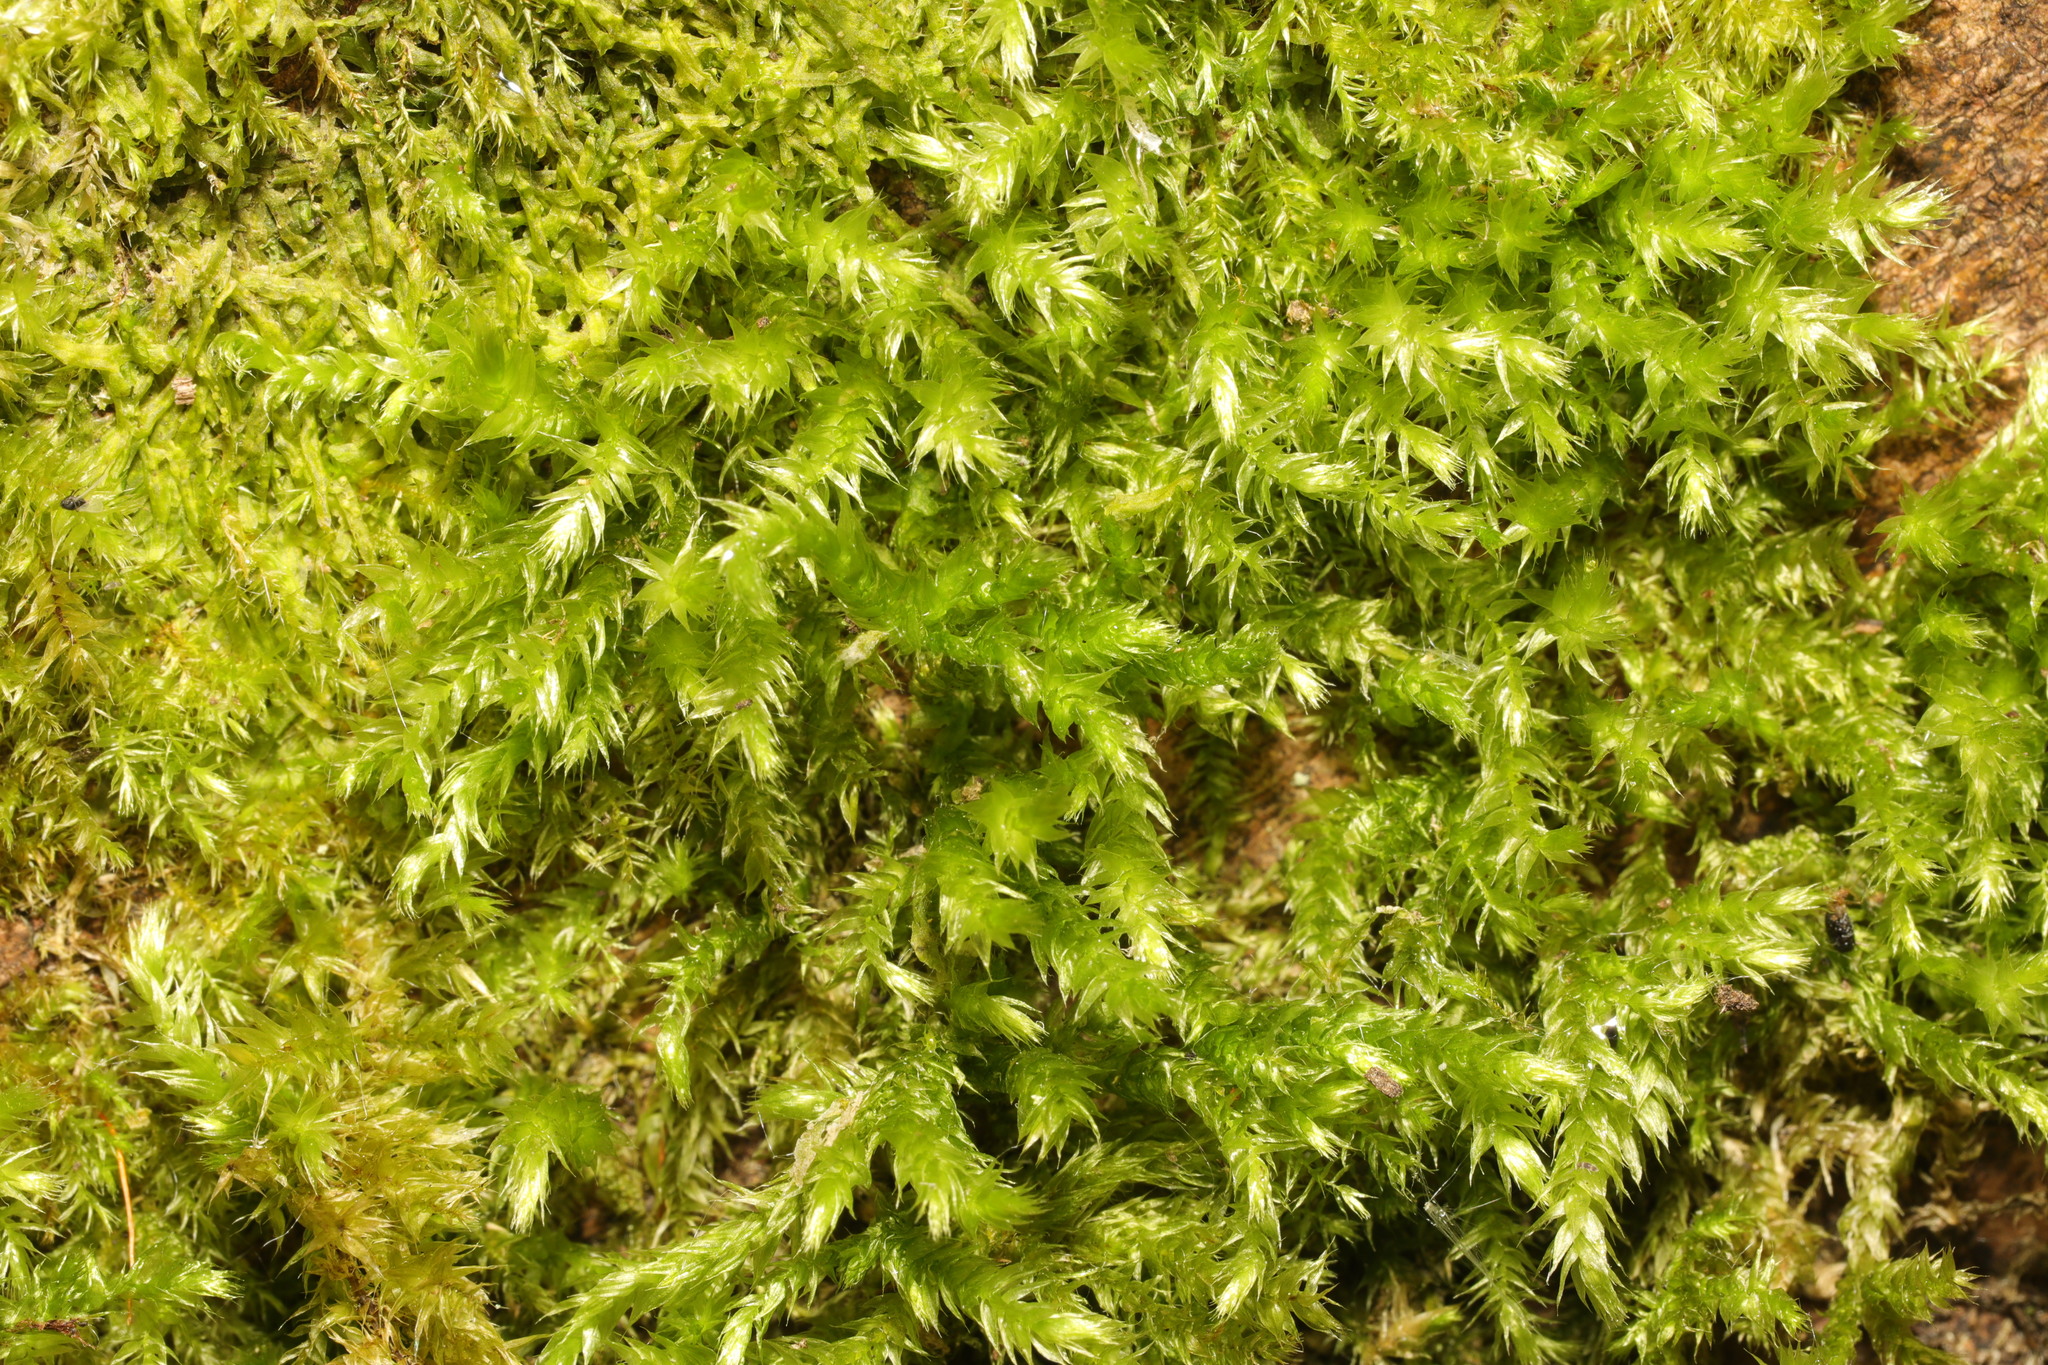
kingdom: Plantae
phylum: Bryophyta
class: Bryopsida
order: Hypnales
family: Brachytheciaceae
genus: Brachythecium
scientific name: Brachythecium rutabulum
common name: Rough-stalked feather-moss
